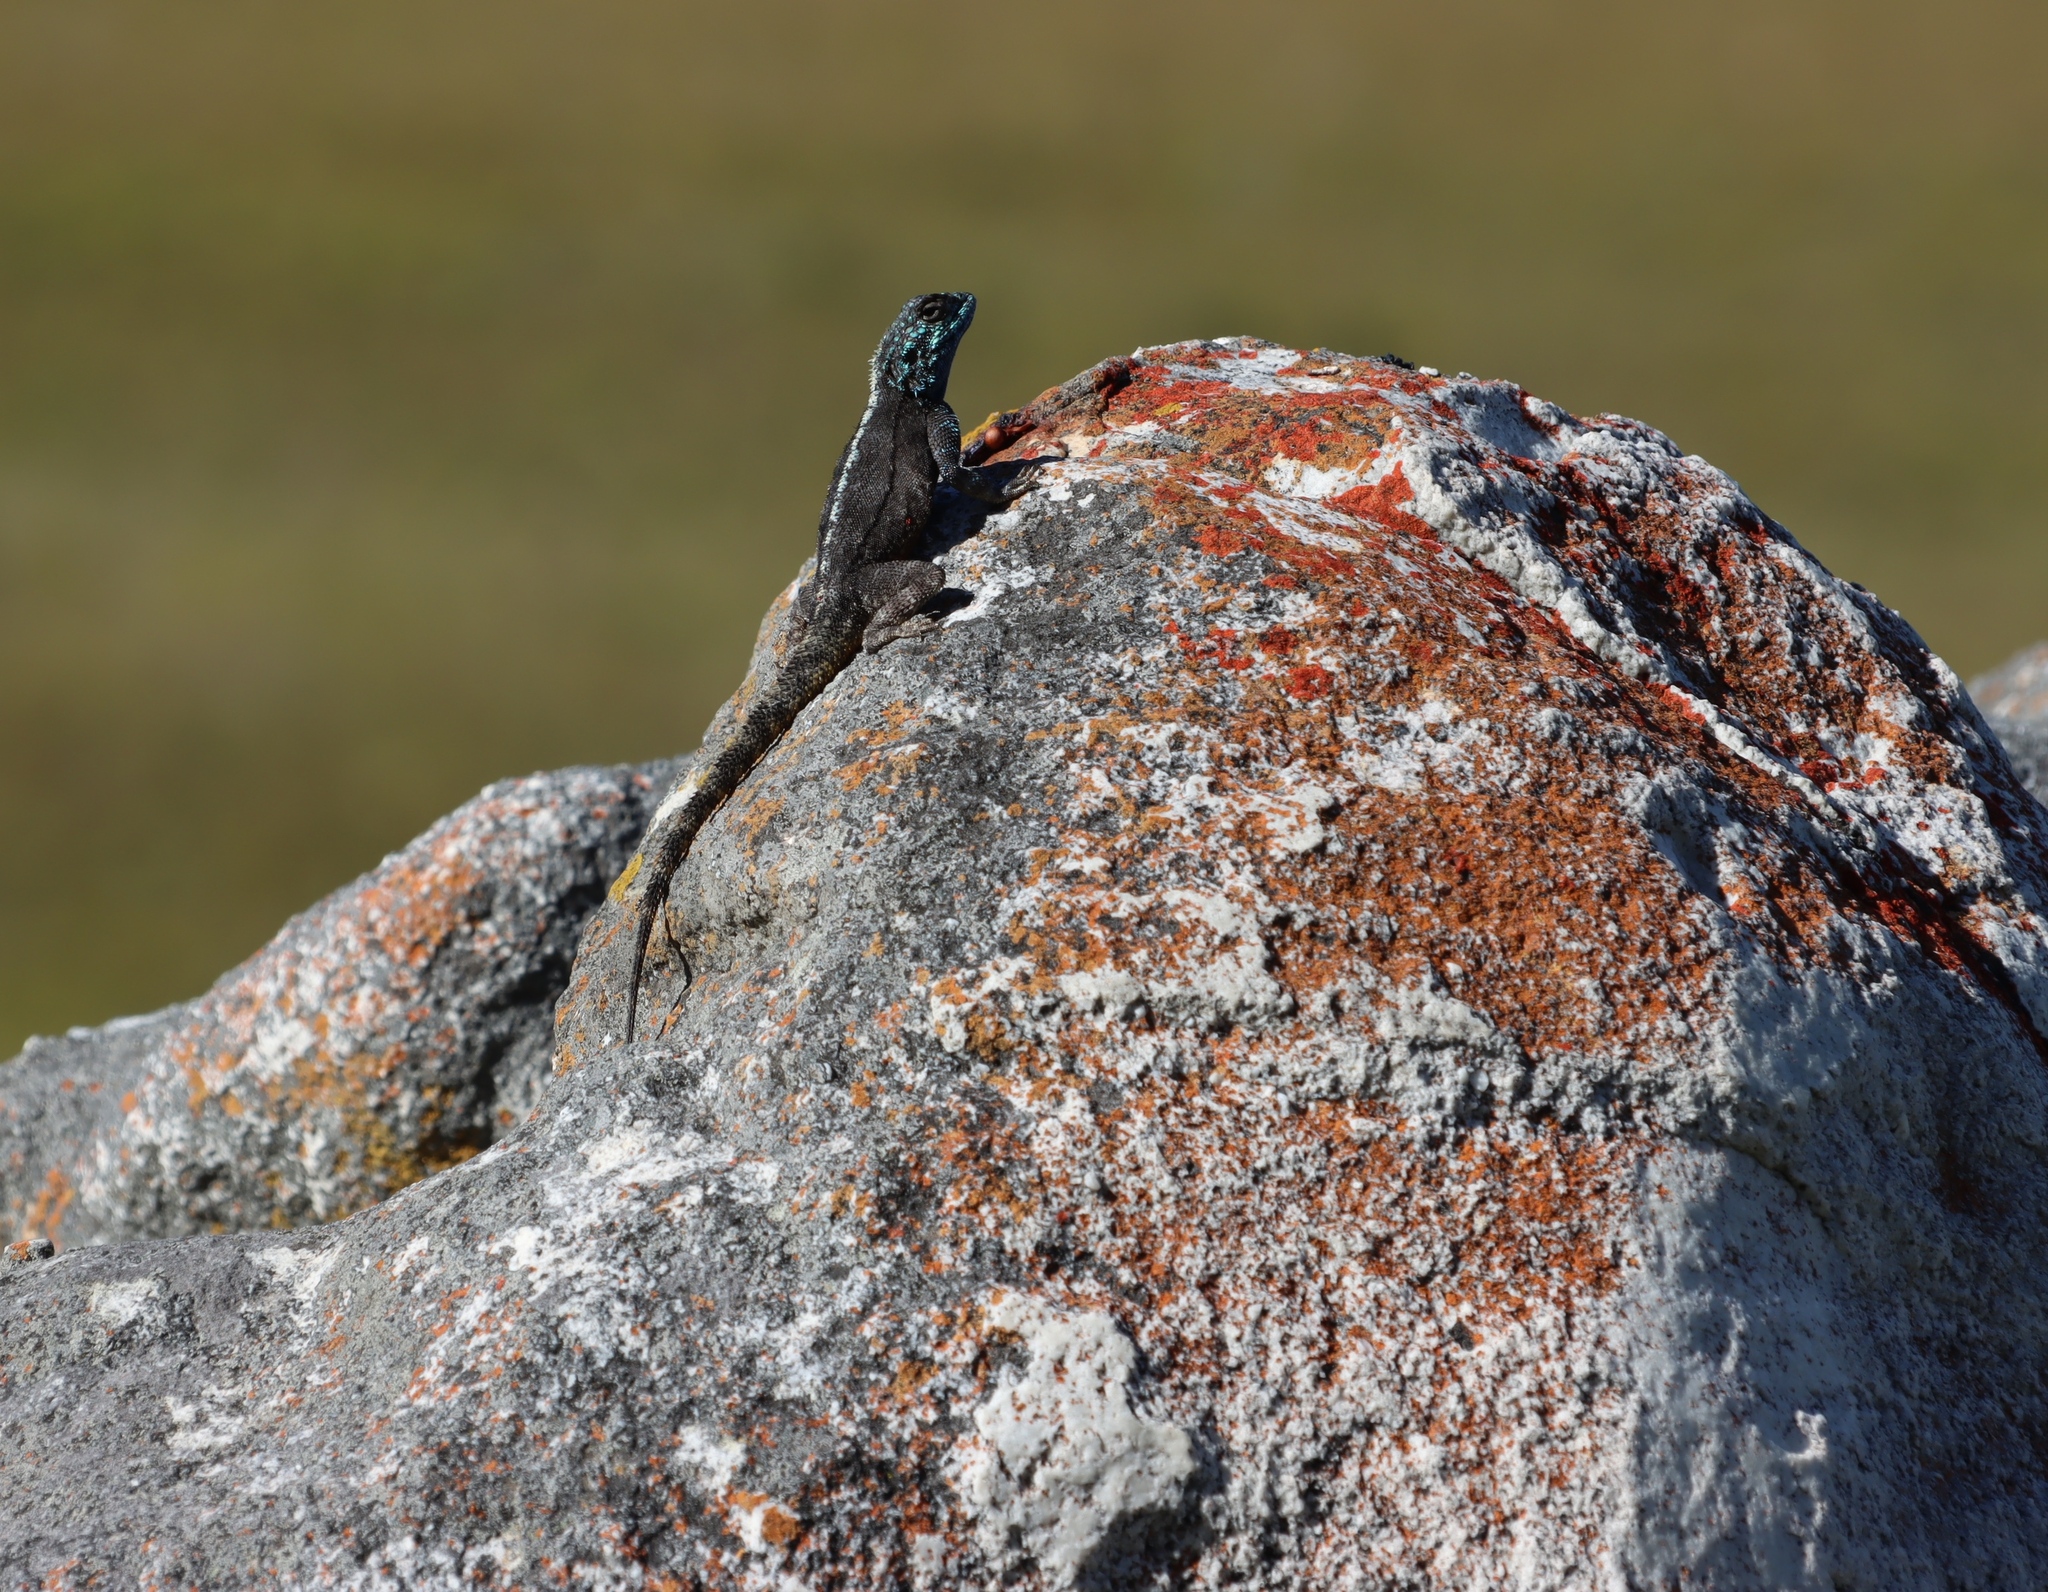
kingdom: Animalia
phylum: Chordata
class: Squamata
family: Agamidae
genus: Agama
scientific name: Agama atra
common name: Southern african rock agama
